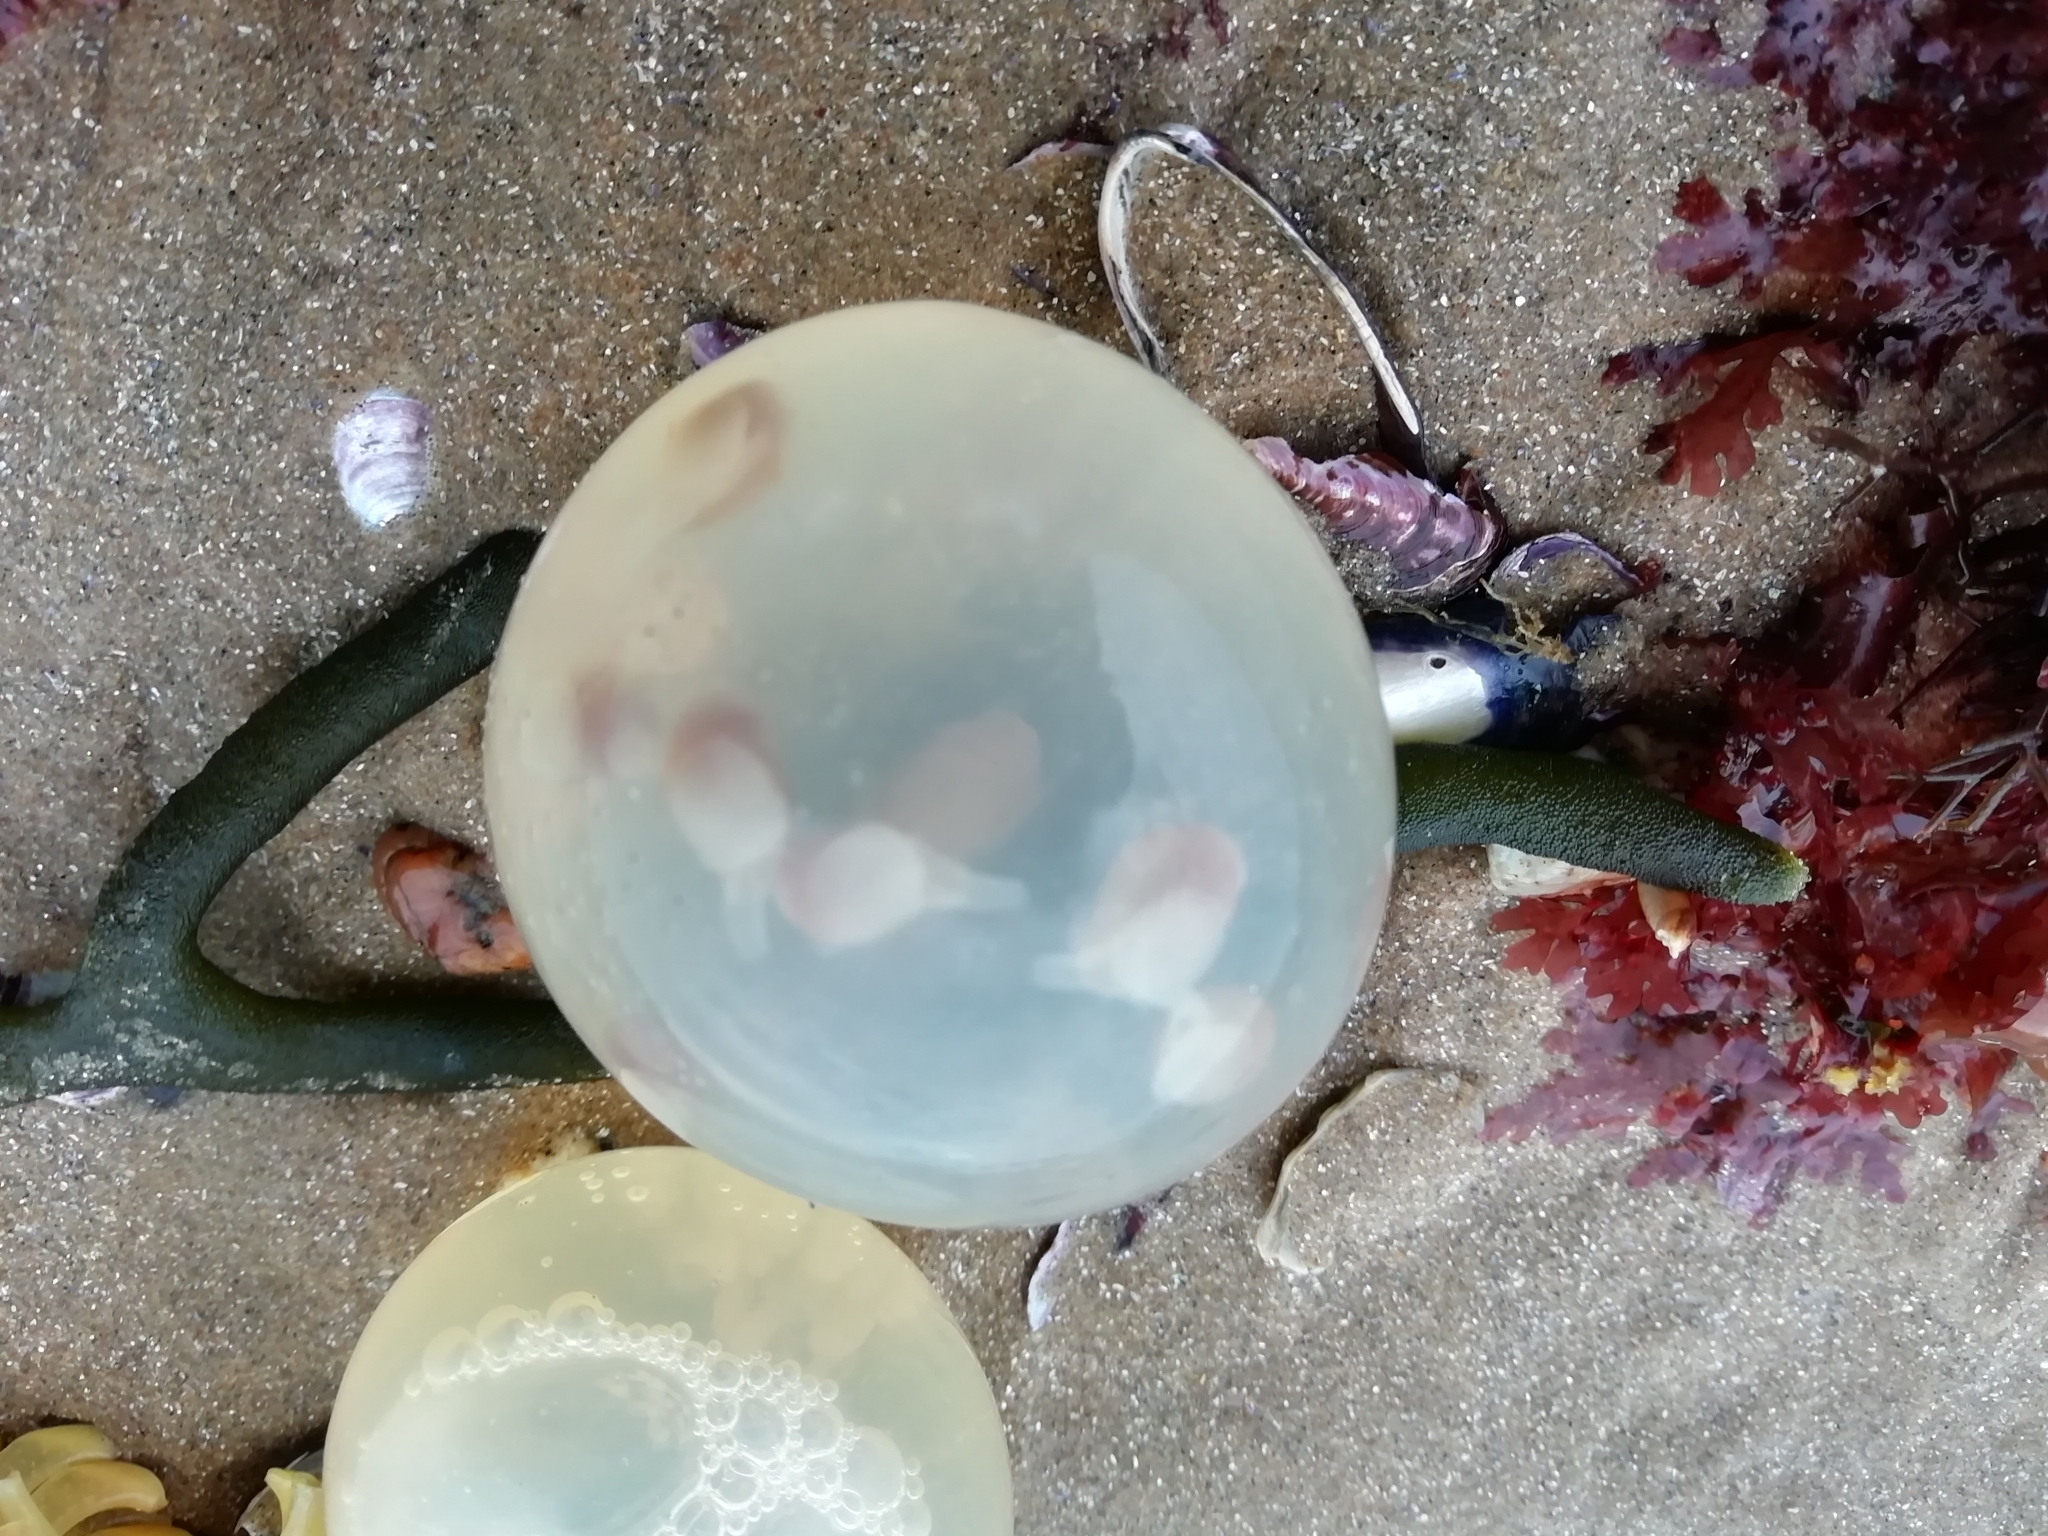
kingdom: Animalia
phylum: Mollusca
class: Gastropoda
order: Neogastropoda
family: Volutidae
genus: Pachycymbiola
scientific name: Pachycymbiola brasiliana
